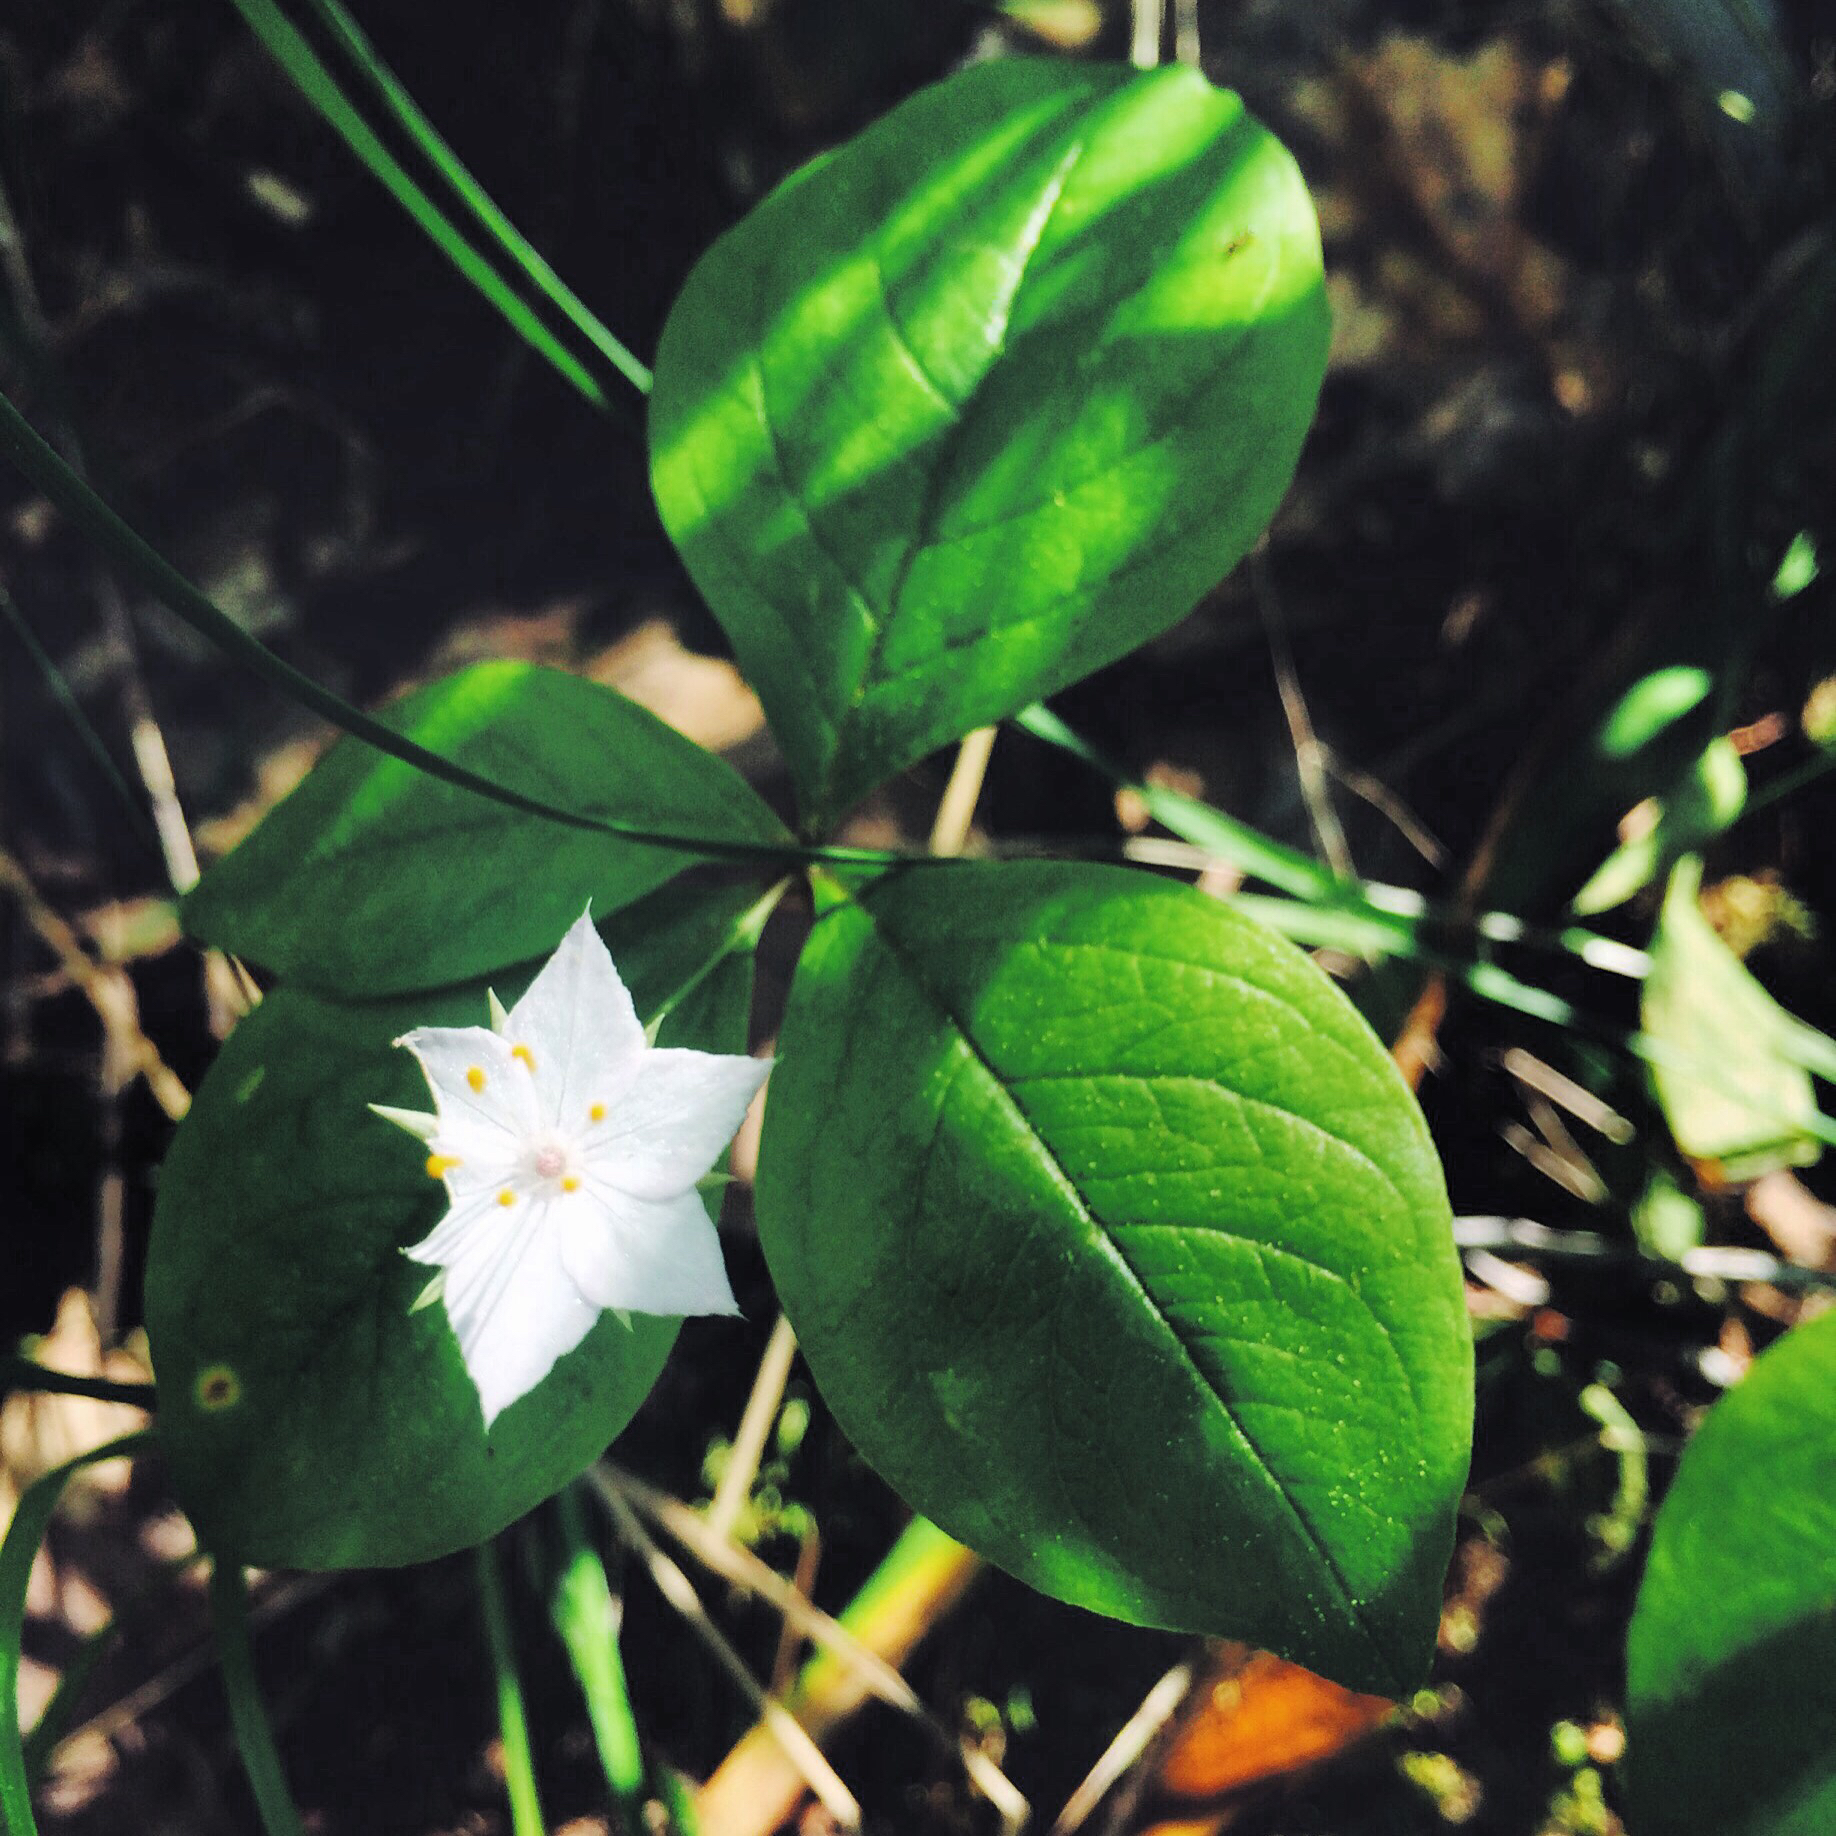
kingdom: Plantae
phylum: Tracheophyta
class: Magnoliopsida
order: Ericales
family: Primulaceae
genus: Lysimachia
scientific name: Lysimachia latifolia
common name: Pacific starflower
